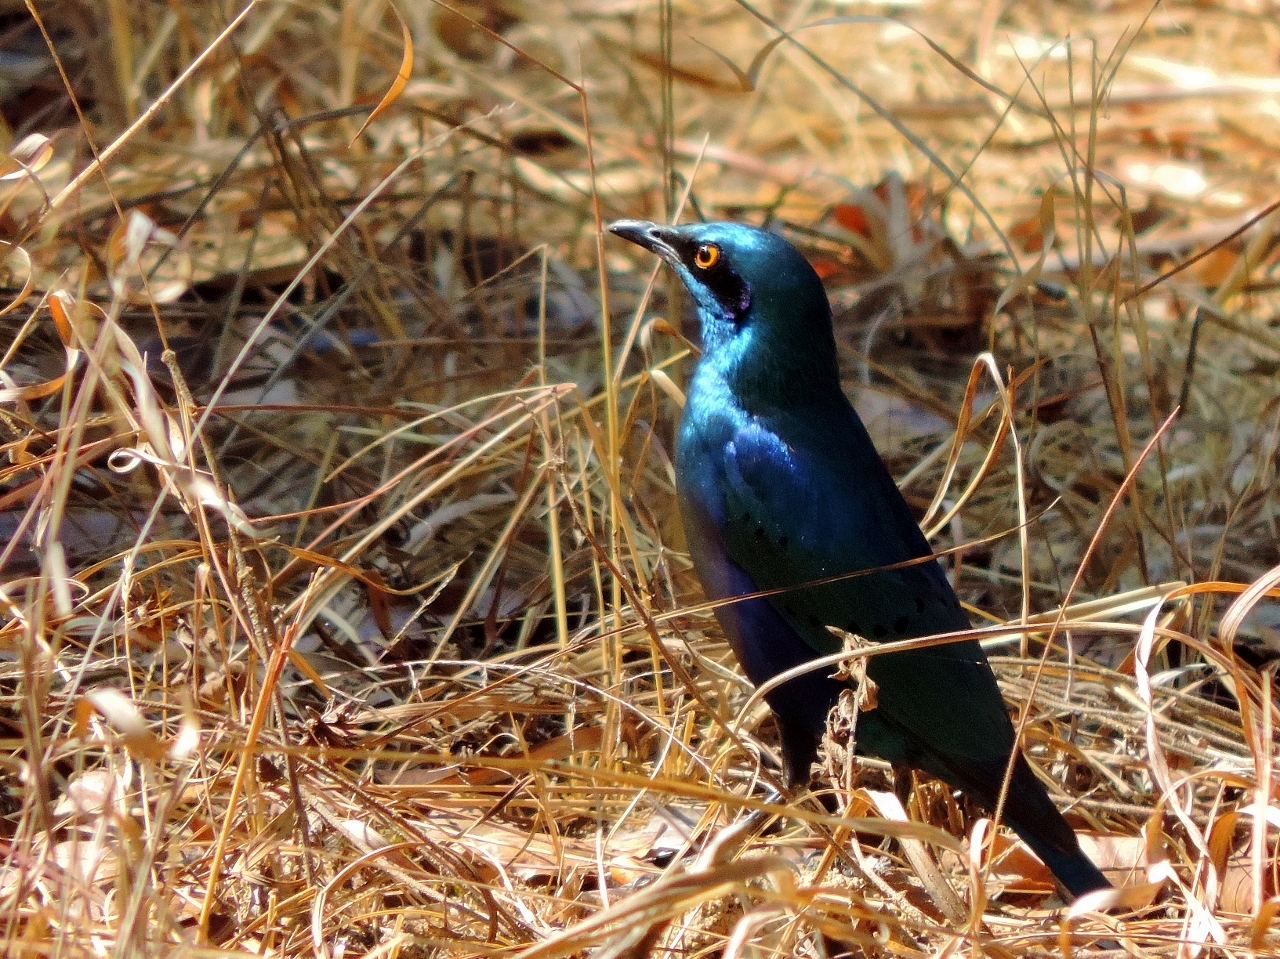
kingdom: Animalia
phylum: Chordata
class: Aves
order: Passeriformes
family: Sturnidae
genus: Lamprotornis
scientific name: Lamprotornis chloropterus
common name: Lesser blue-eared starling
